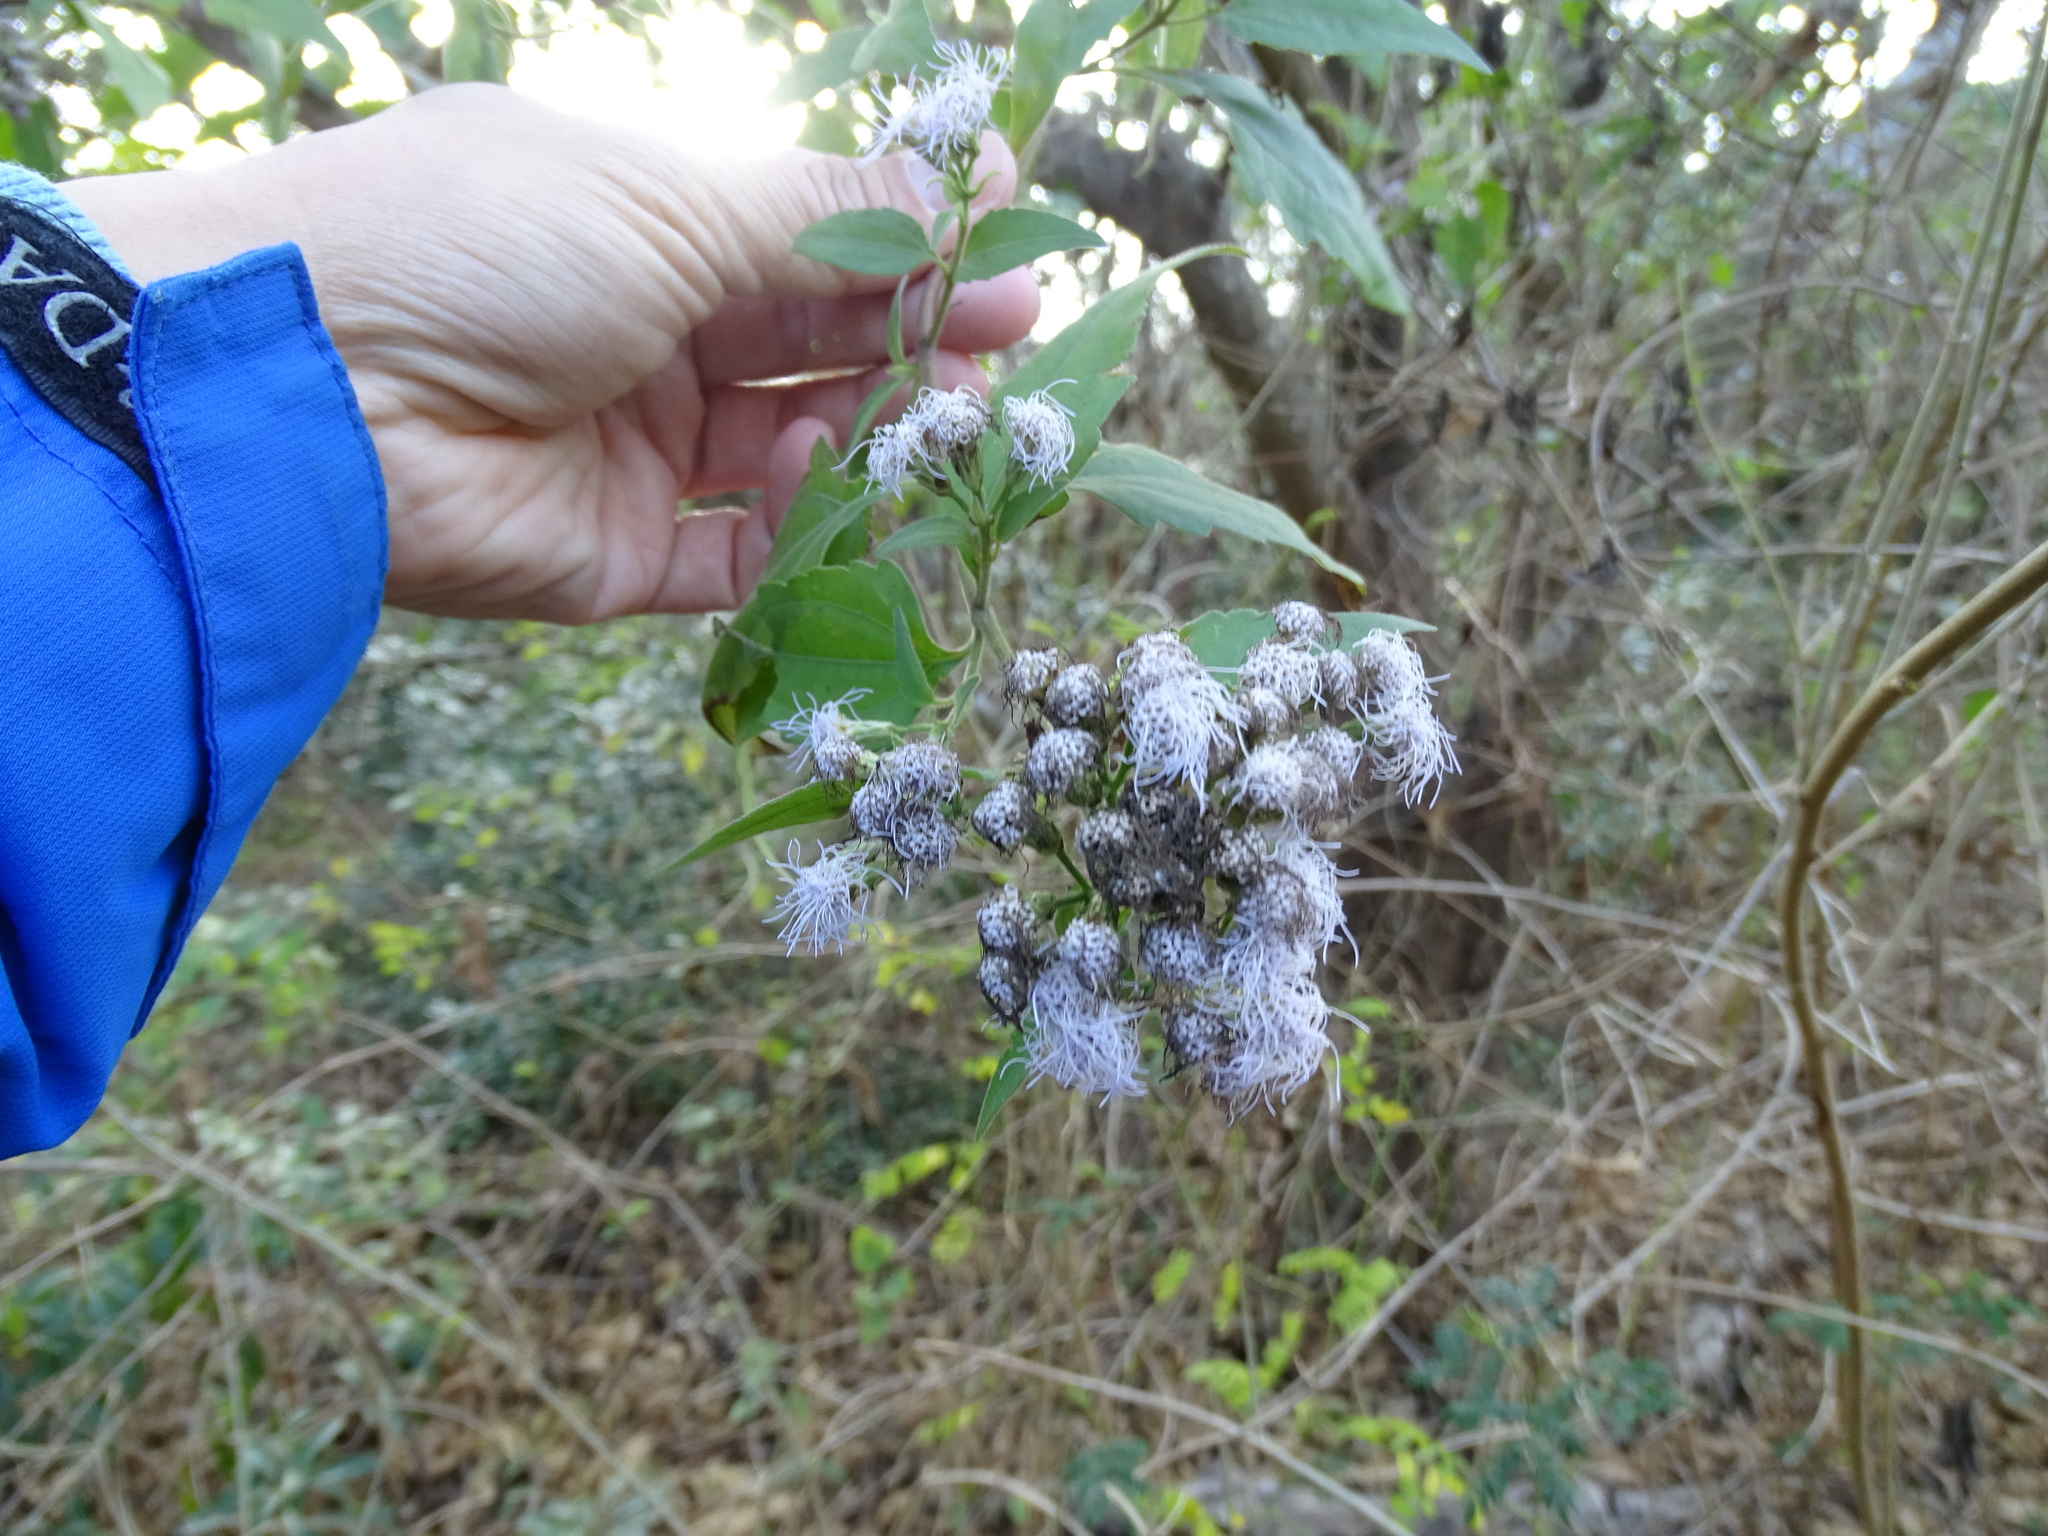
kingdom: Plantae
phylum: Tracheophyta
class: Magnoliopsida
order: Asterales
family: Asteraceae
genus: Chromolaena
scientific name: Chromolaena odorata
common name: Siamweed
